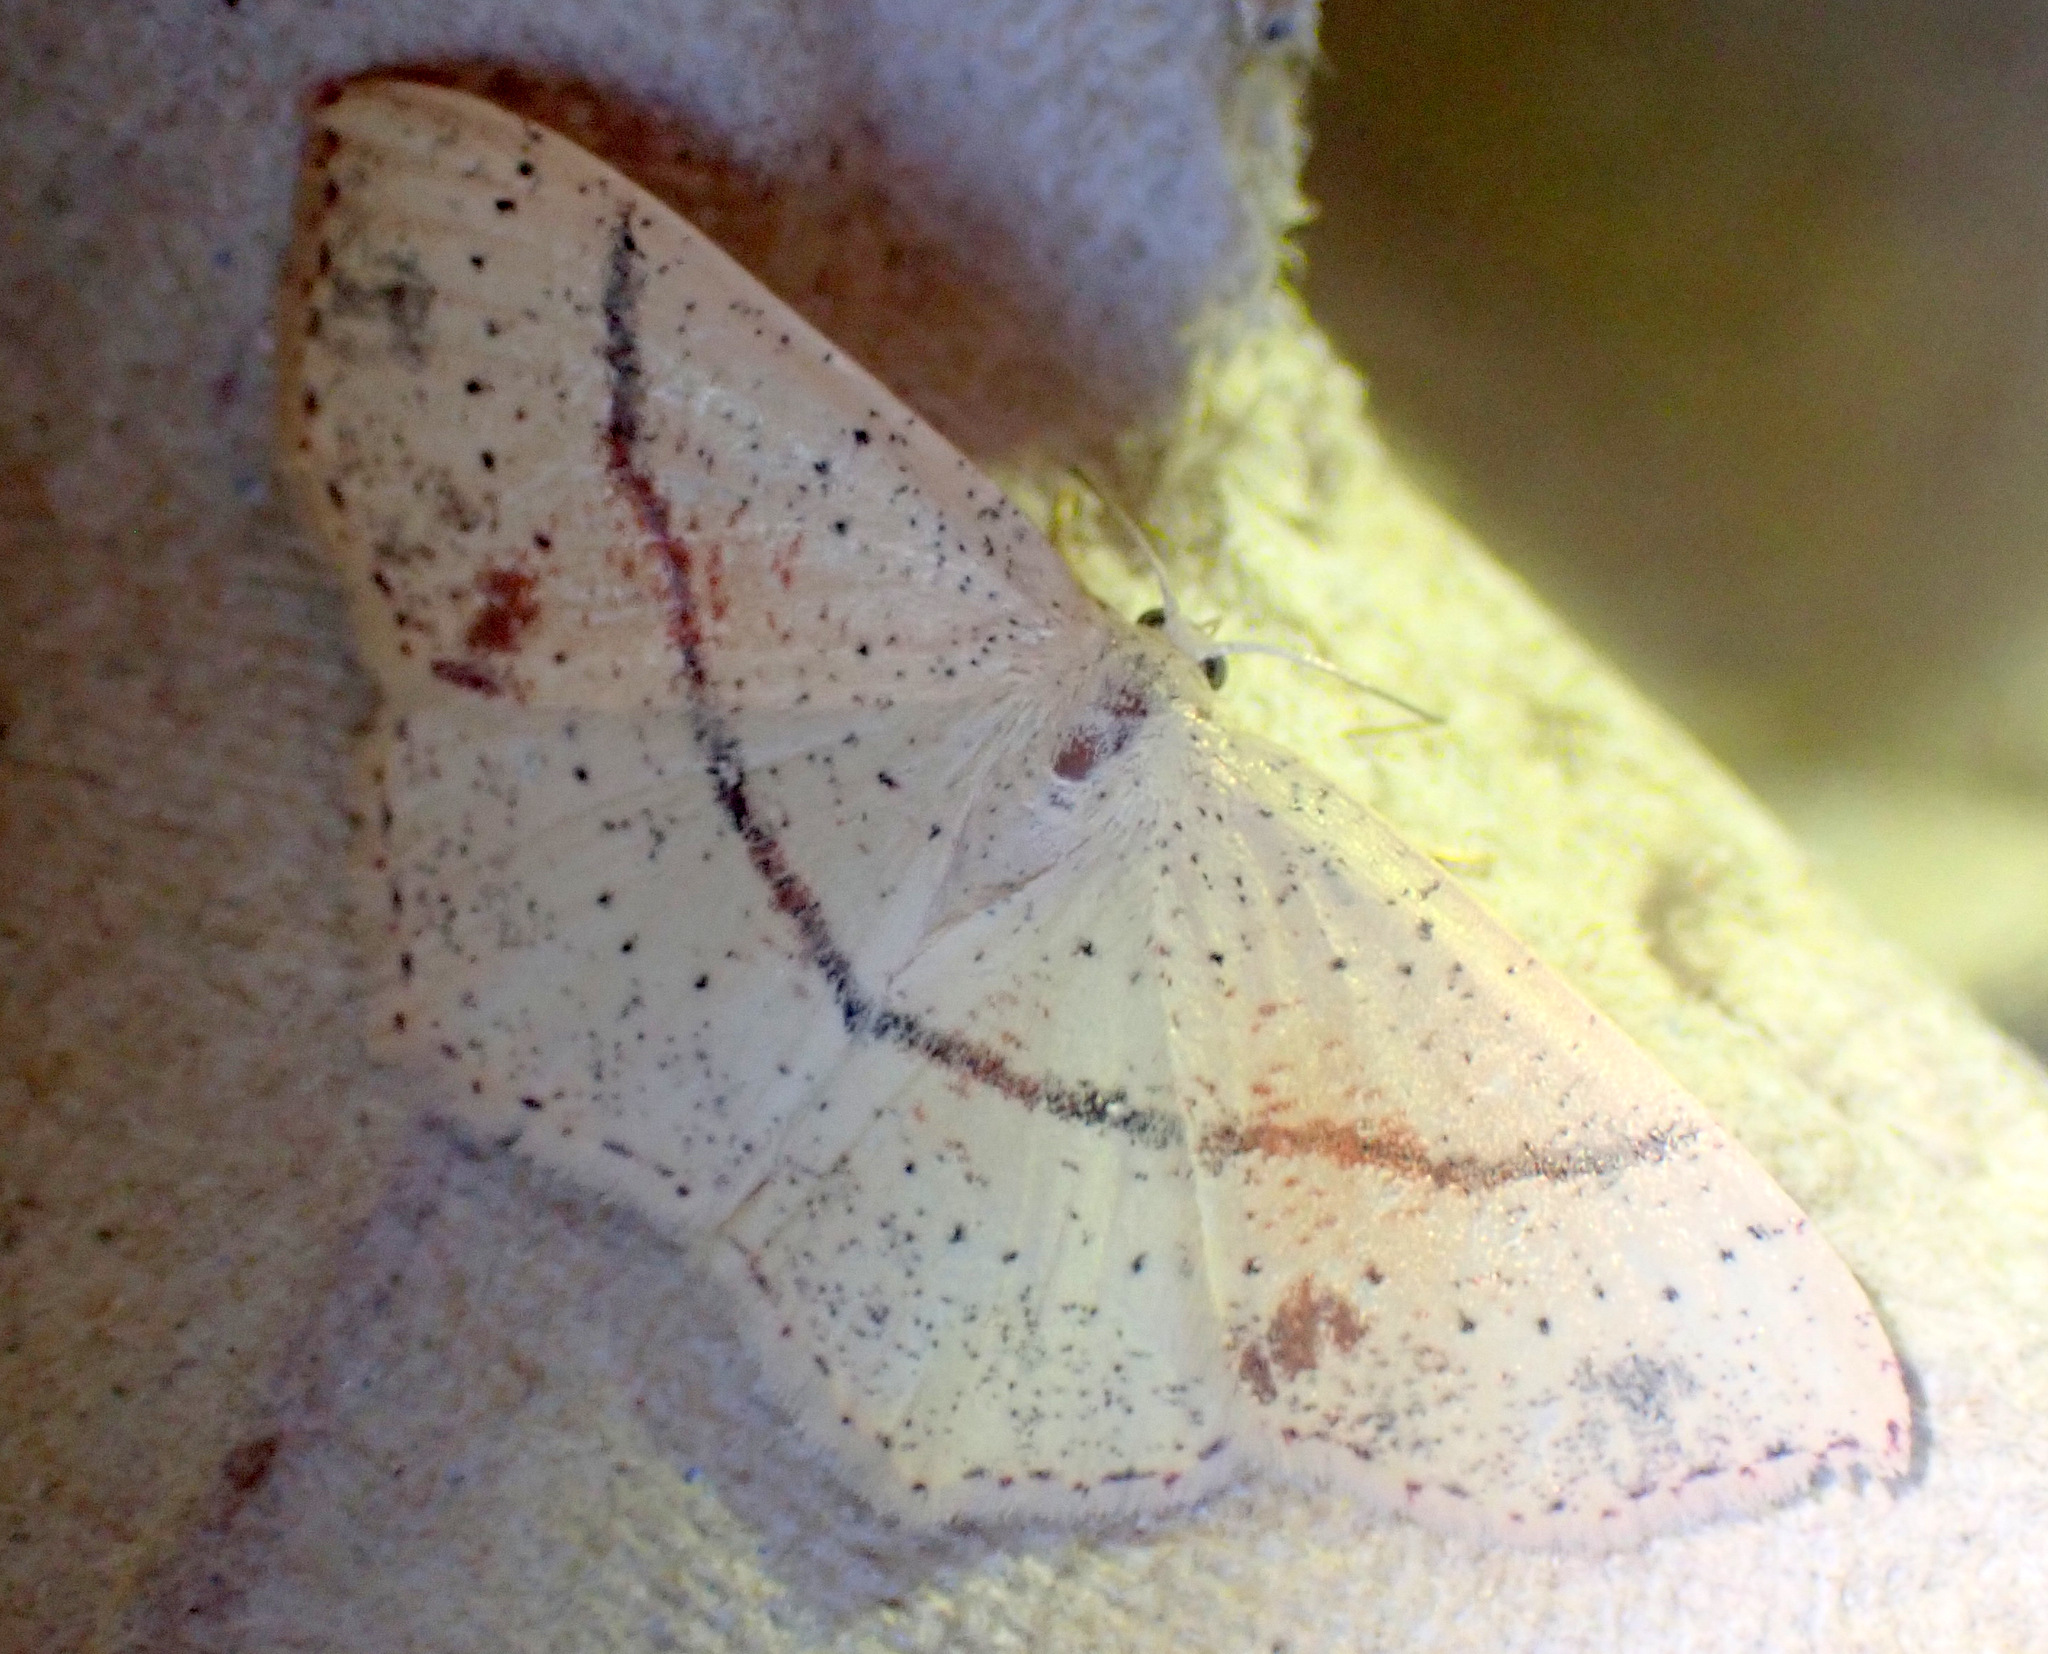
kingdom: Animalia
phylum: Arthropoda
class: Insecta
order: Lepidoptera
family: Geometridae
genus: Cyclophora
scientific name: Cyclophora punctaria
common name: Maiden's blush
